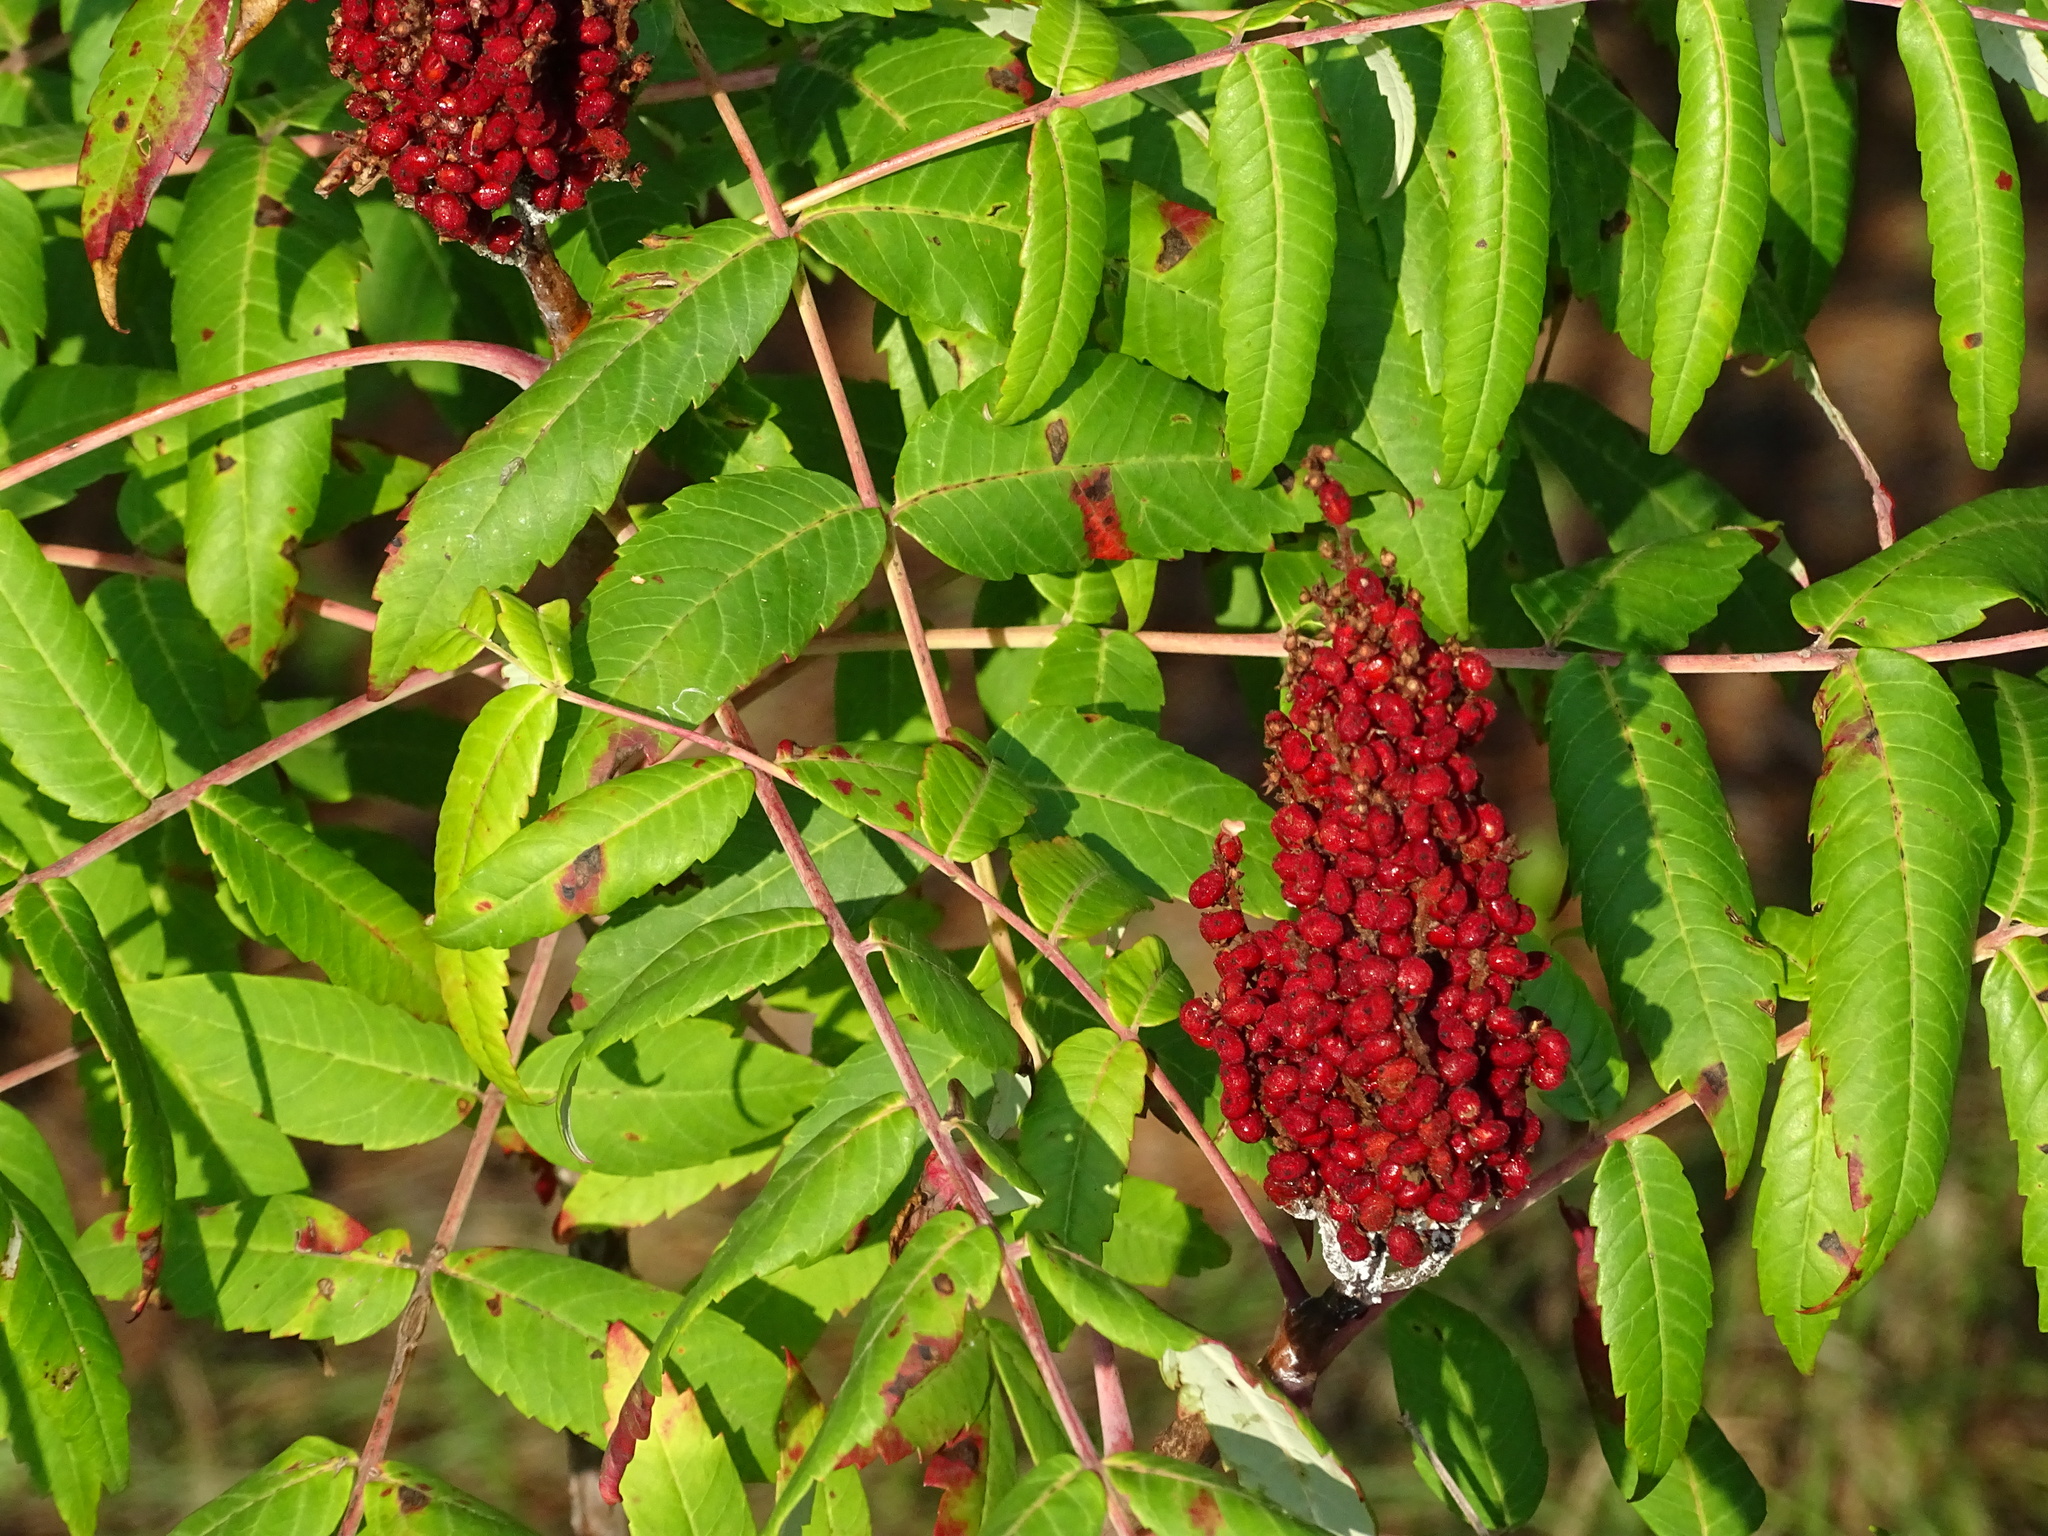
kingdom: Plantae
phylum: Tracheophyta
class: Magnoliopsida
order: Sapindales
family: Anacardiaceae
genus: Rhus
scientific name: Rhus glabra
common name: Scarlet sumac
